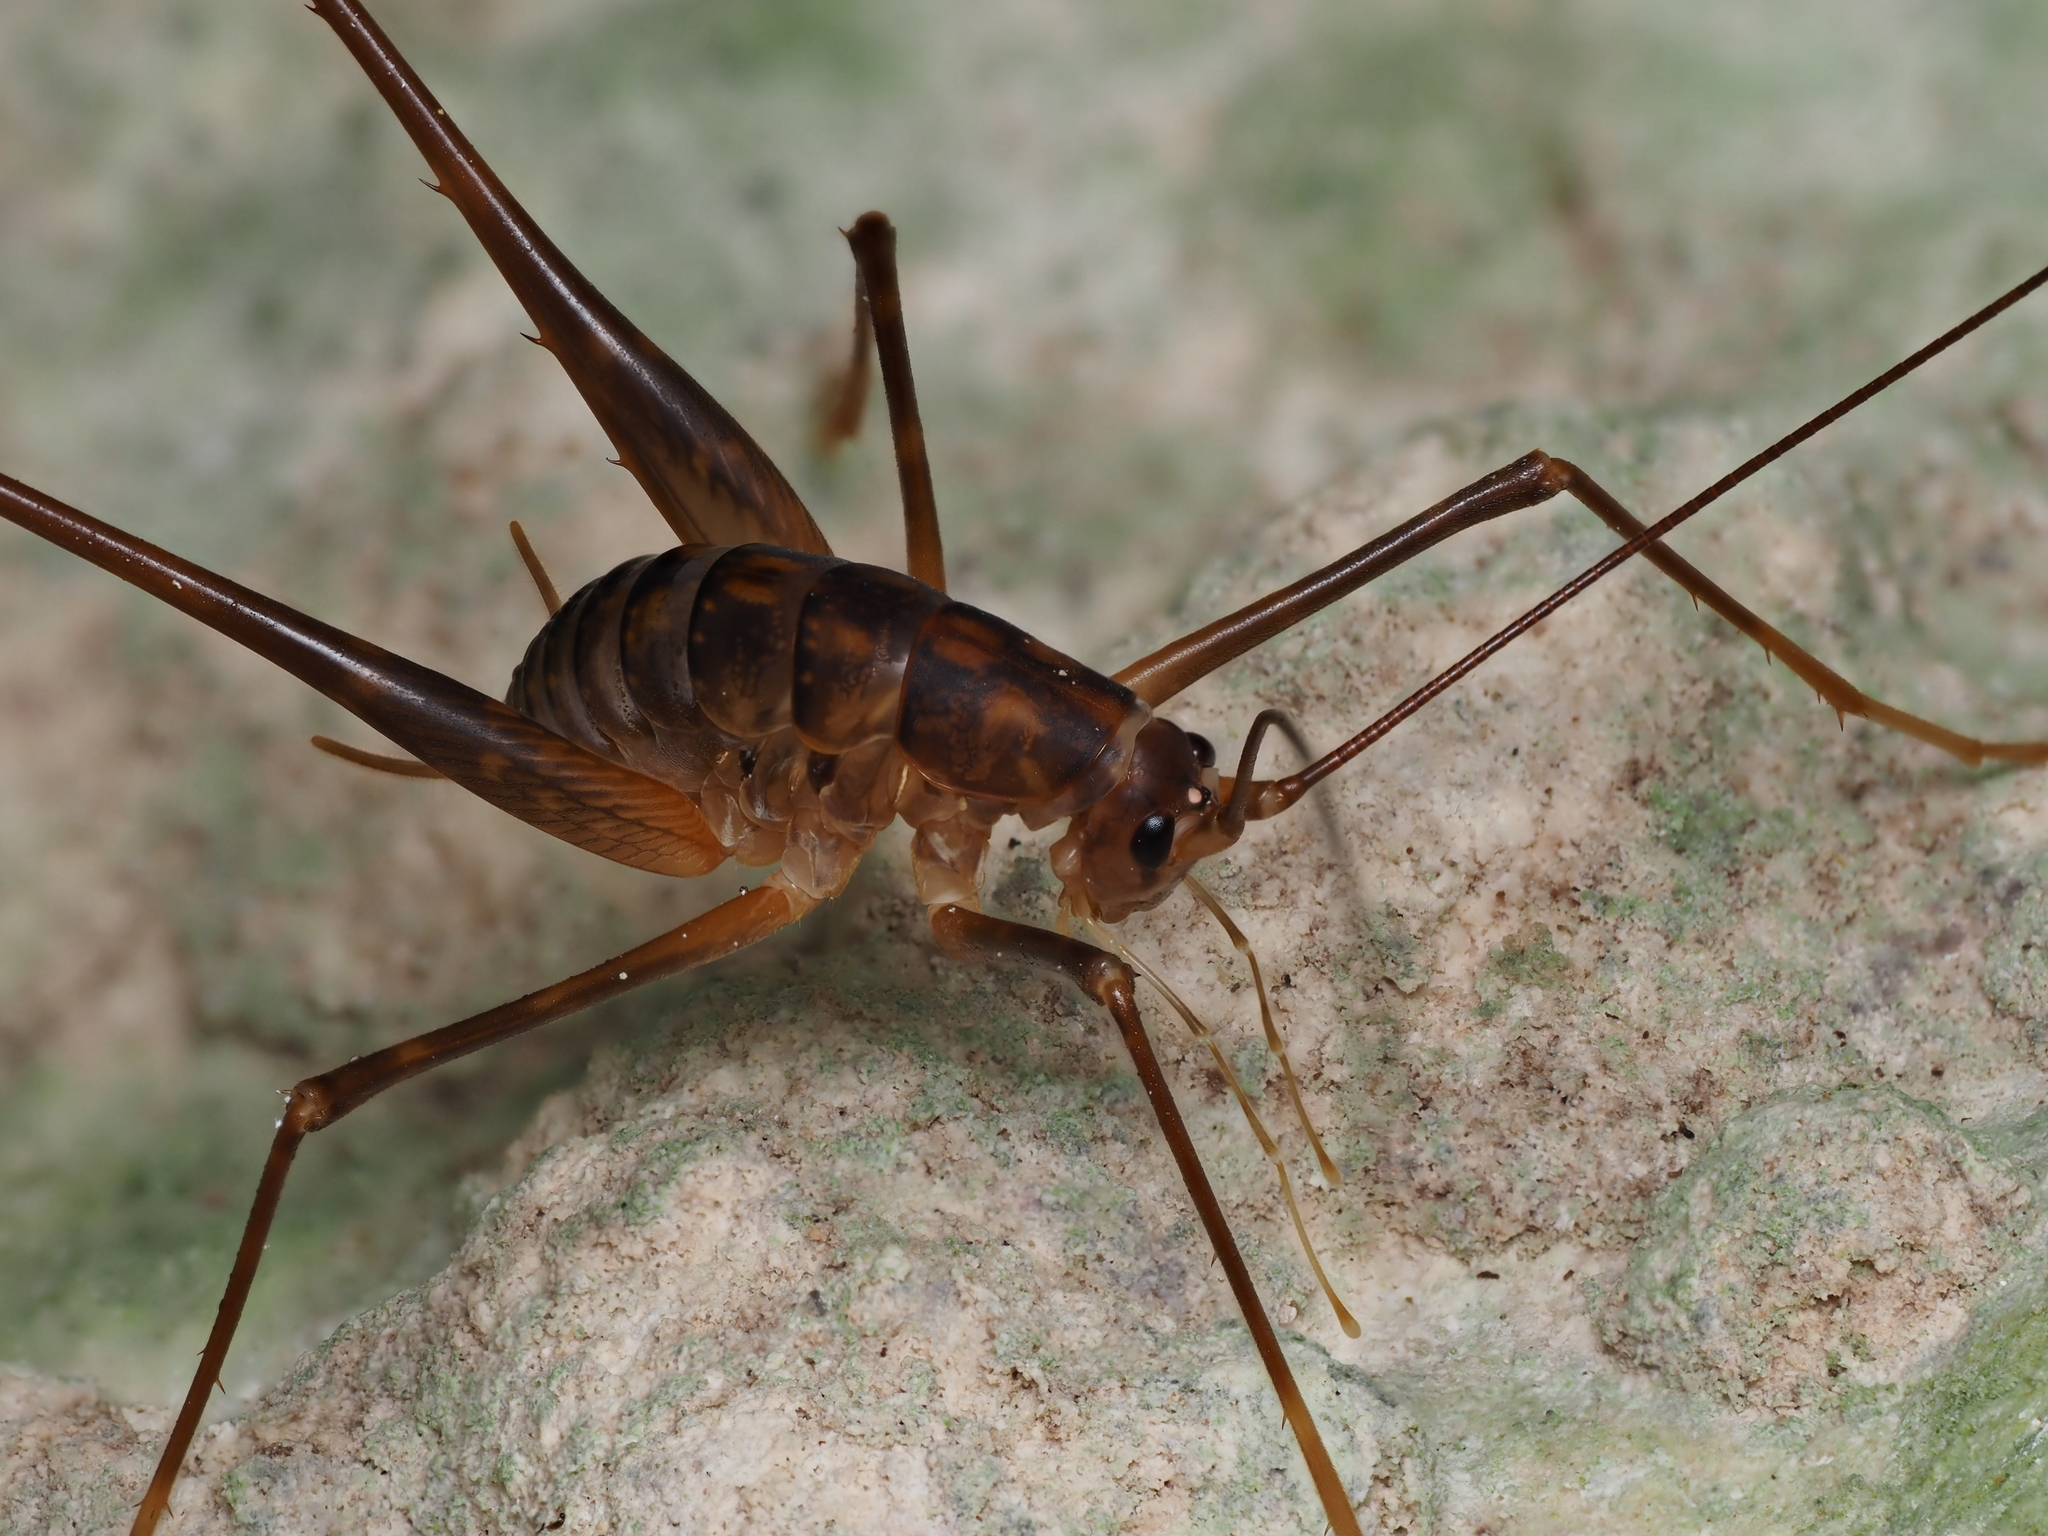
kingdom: Animalia
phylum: Arthropoda
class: Insecta
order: Orthoptera
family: Rhaphidophoridae
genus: Pachyrhamma
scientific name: Pachyrhamma waitomoensis
